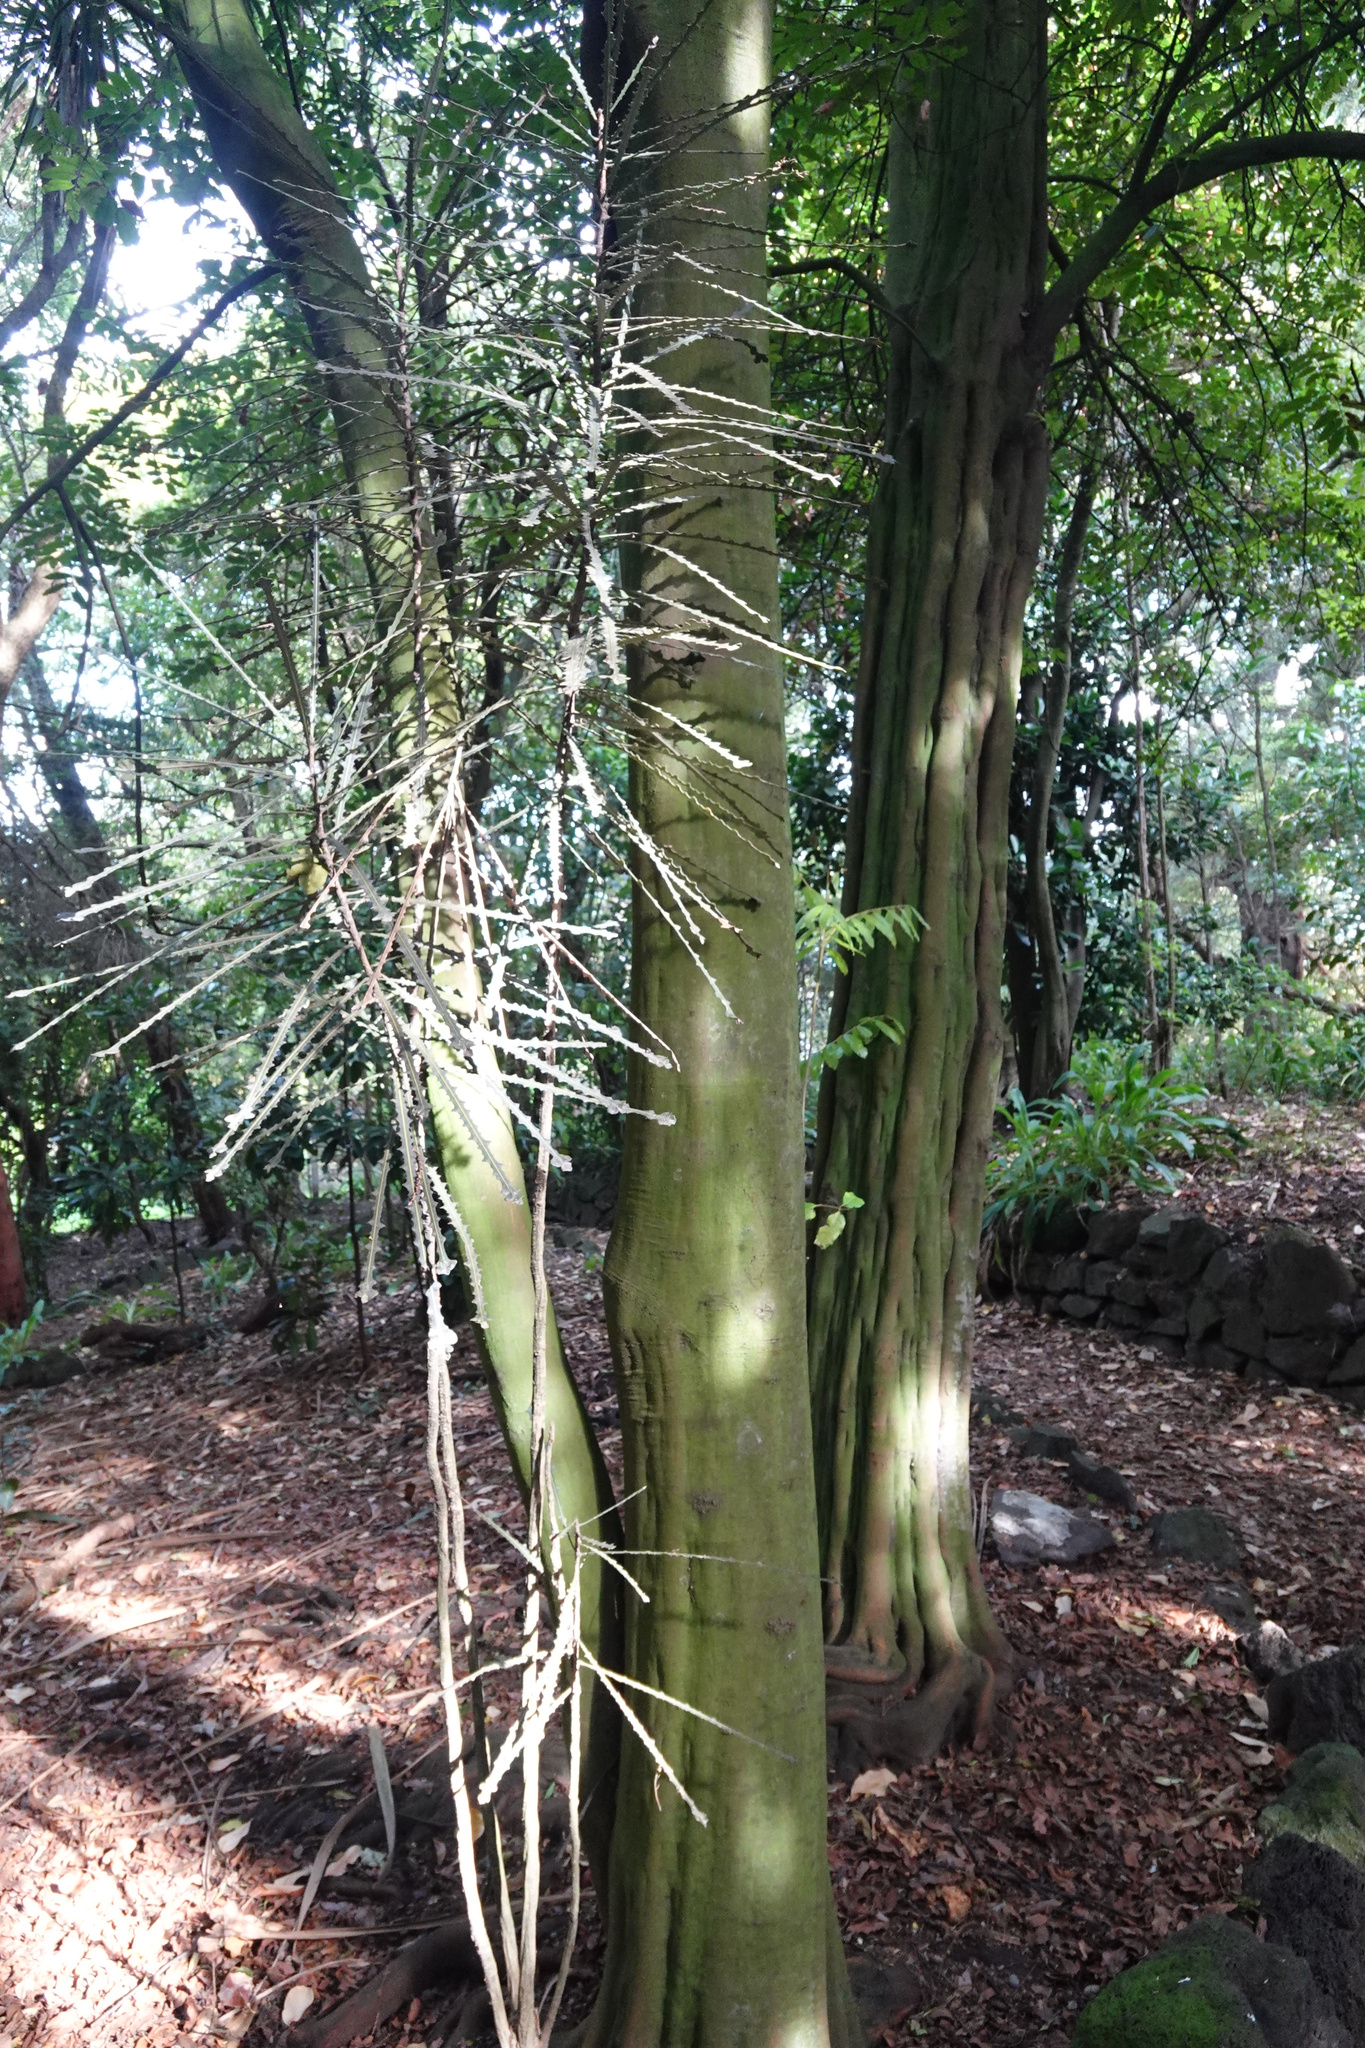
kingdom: Plantae
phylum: Tracheophyta
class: Magnoliopsida
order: Apiales
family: Araliaceae
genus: Pseudopanax
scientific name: Pseudopanax ferox
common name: Fierce lancewood
